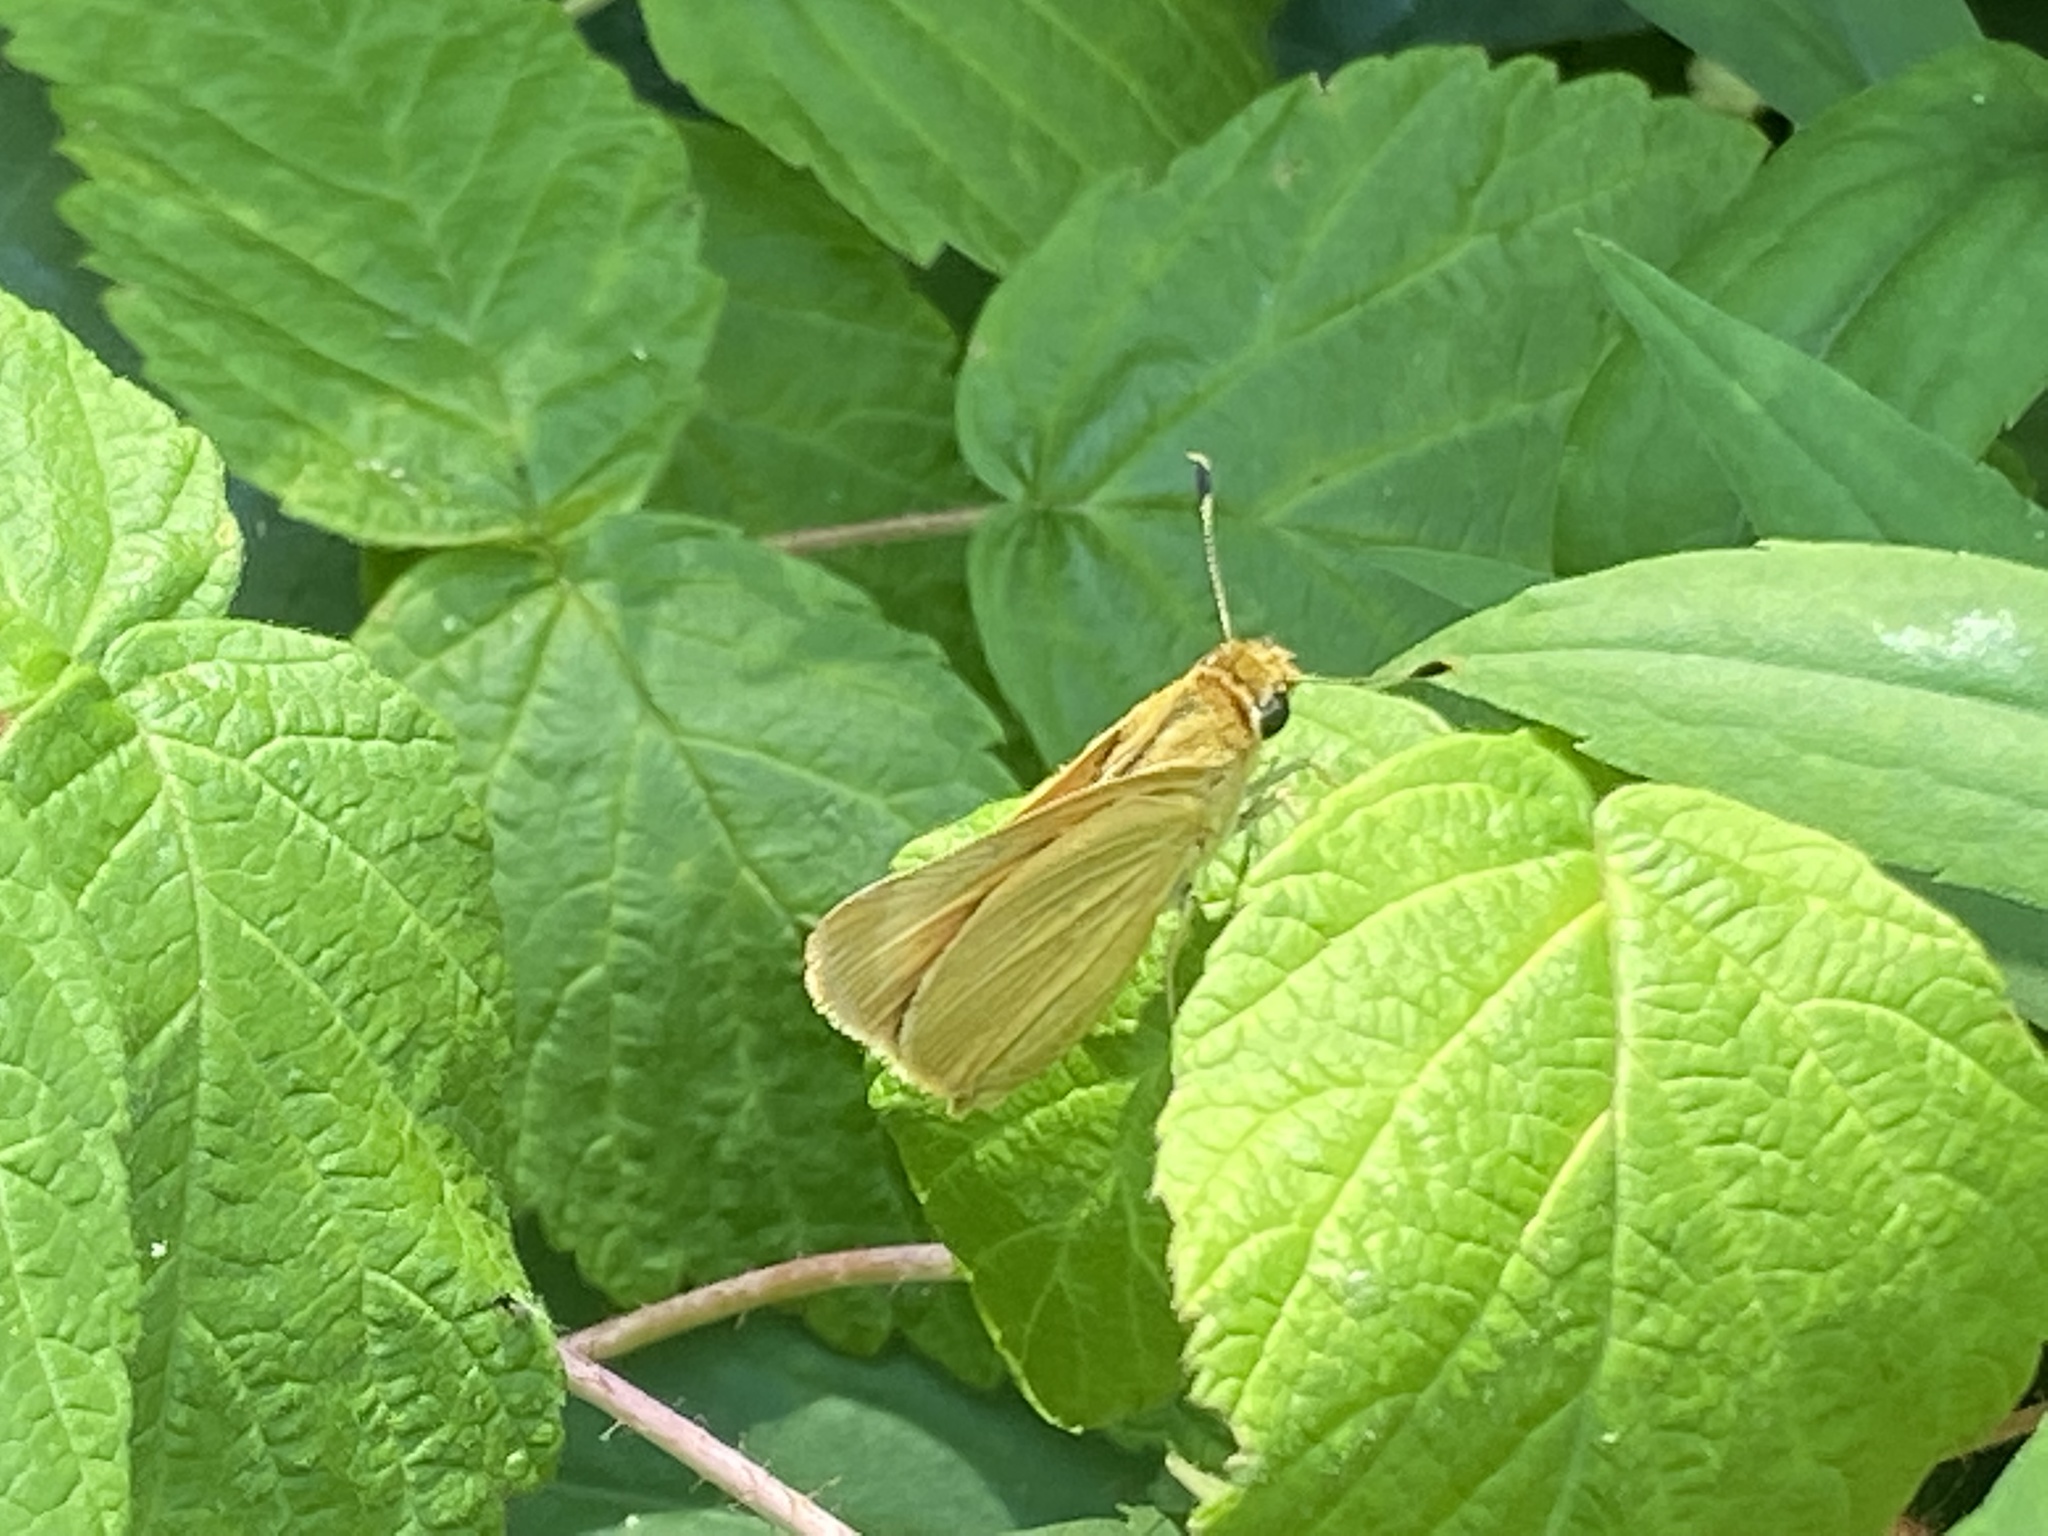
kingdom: Animalia
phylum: Arthropoda
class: Insecta
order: Lepidoptera
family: Hesperiidae
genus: Atrytone
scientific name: Atrytone delaware
